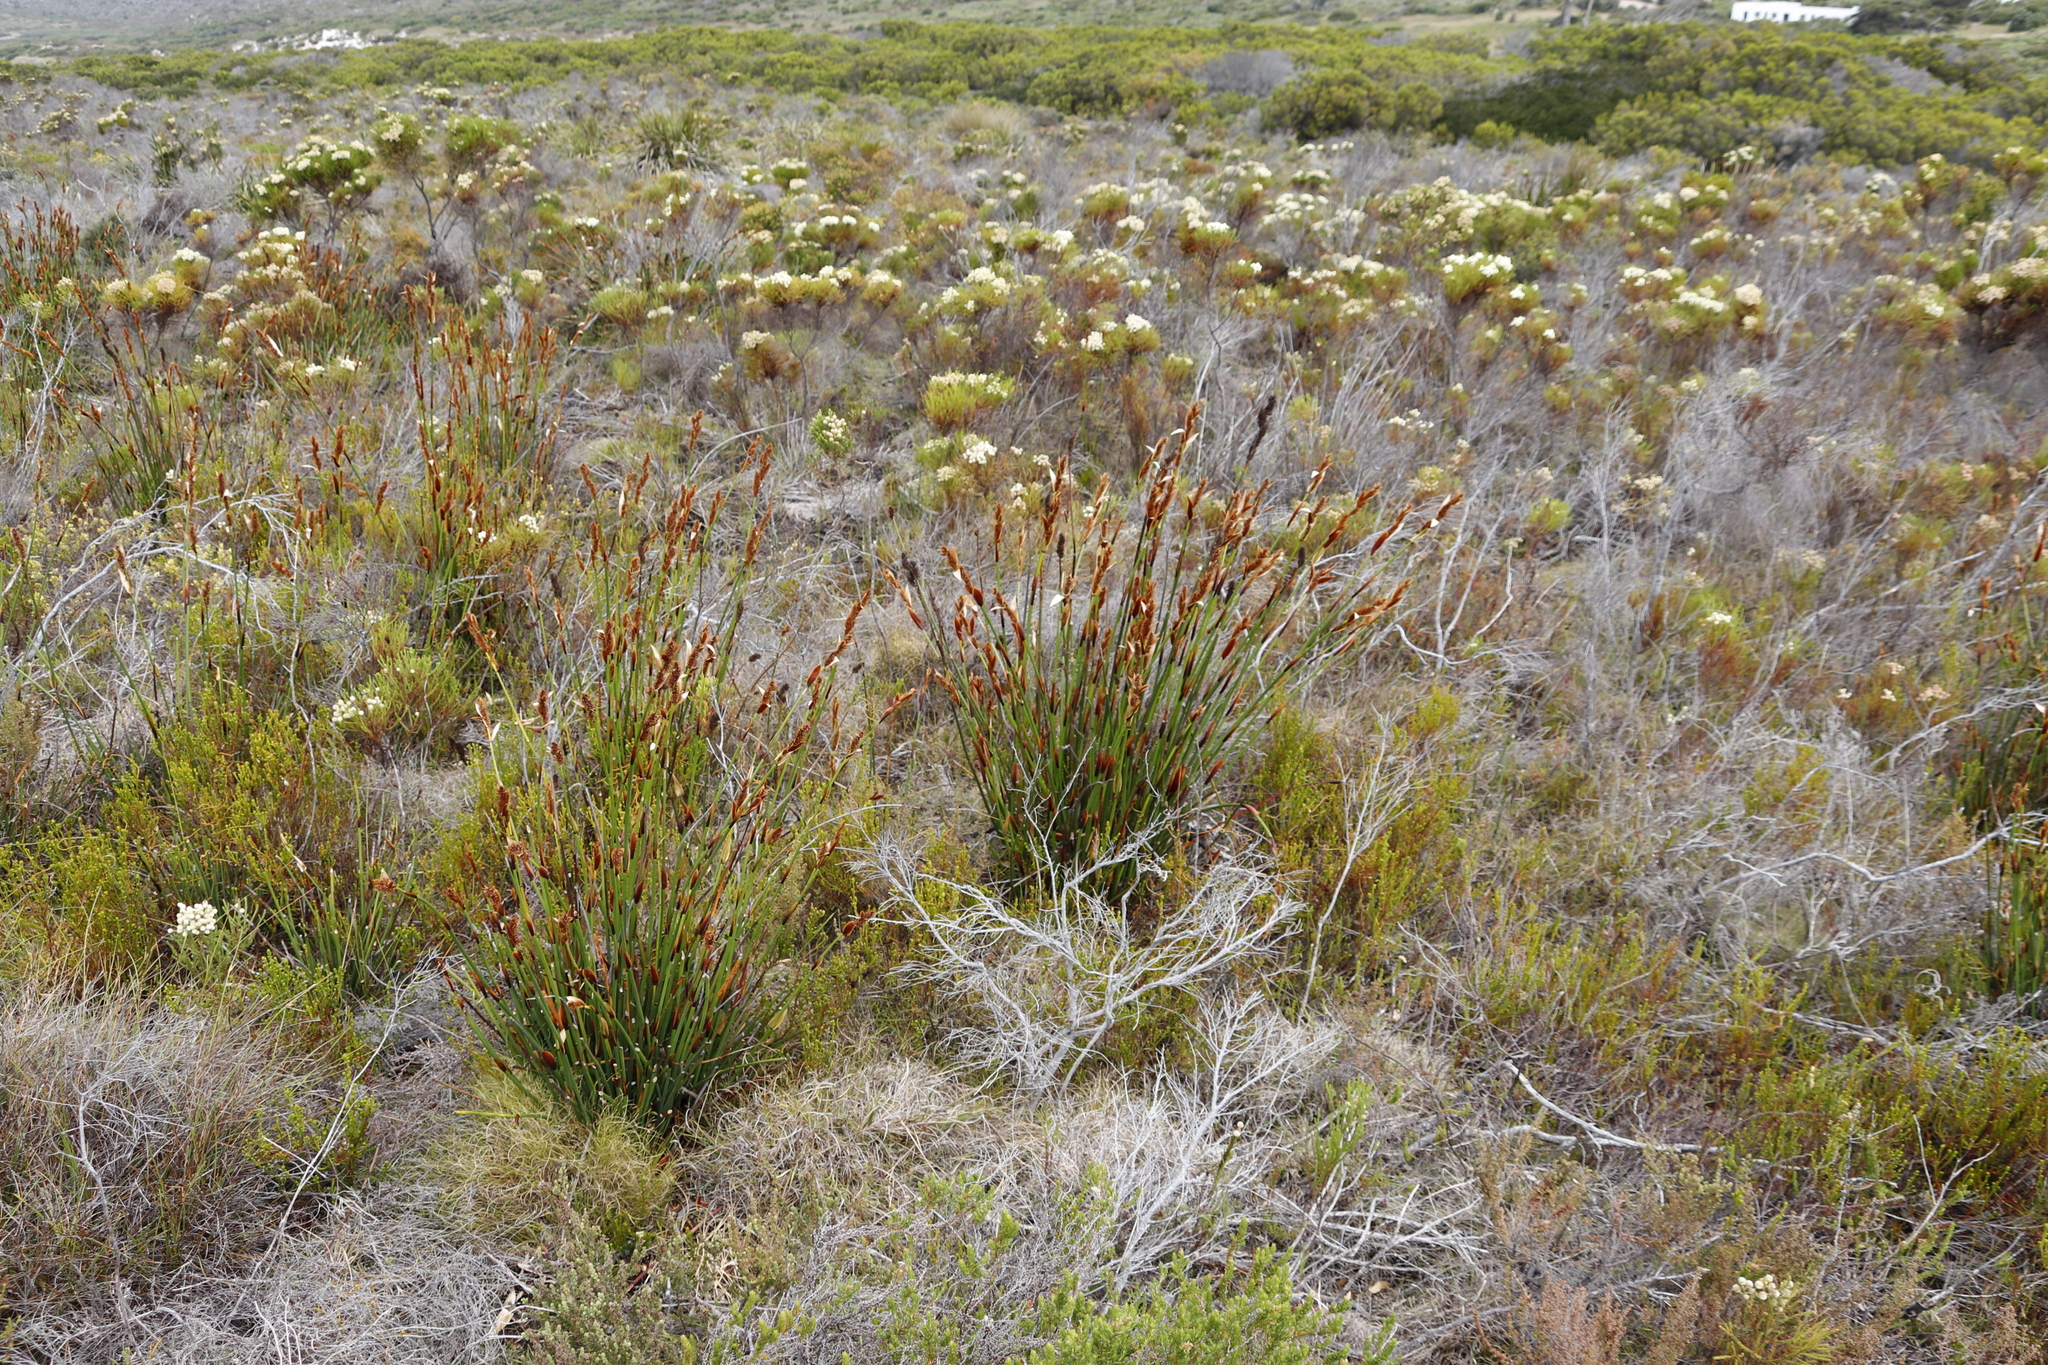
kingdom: Plantae
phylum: Tracheophyta
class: Liliopsida
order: Poales
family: Restionaceae
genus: Elegia
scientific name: Elegia cuspidata
